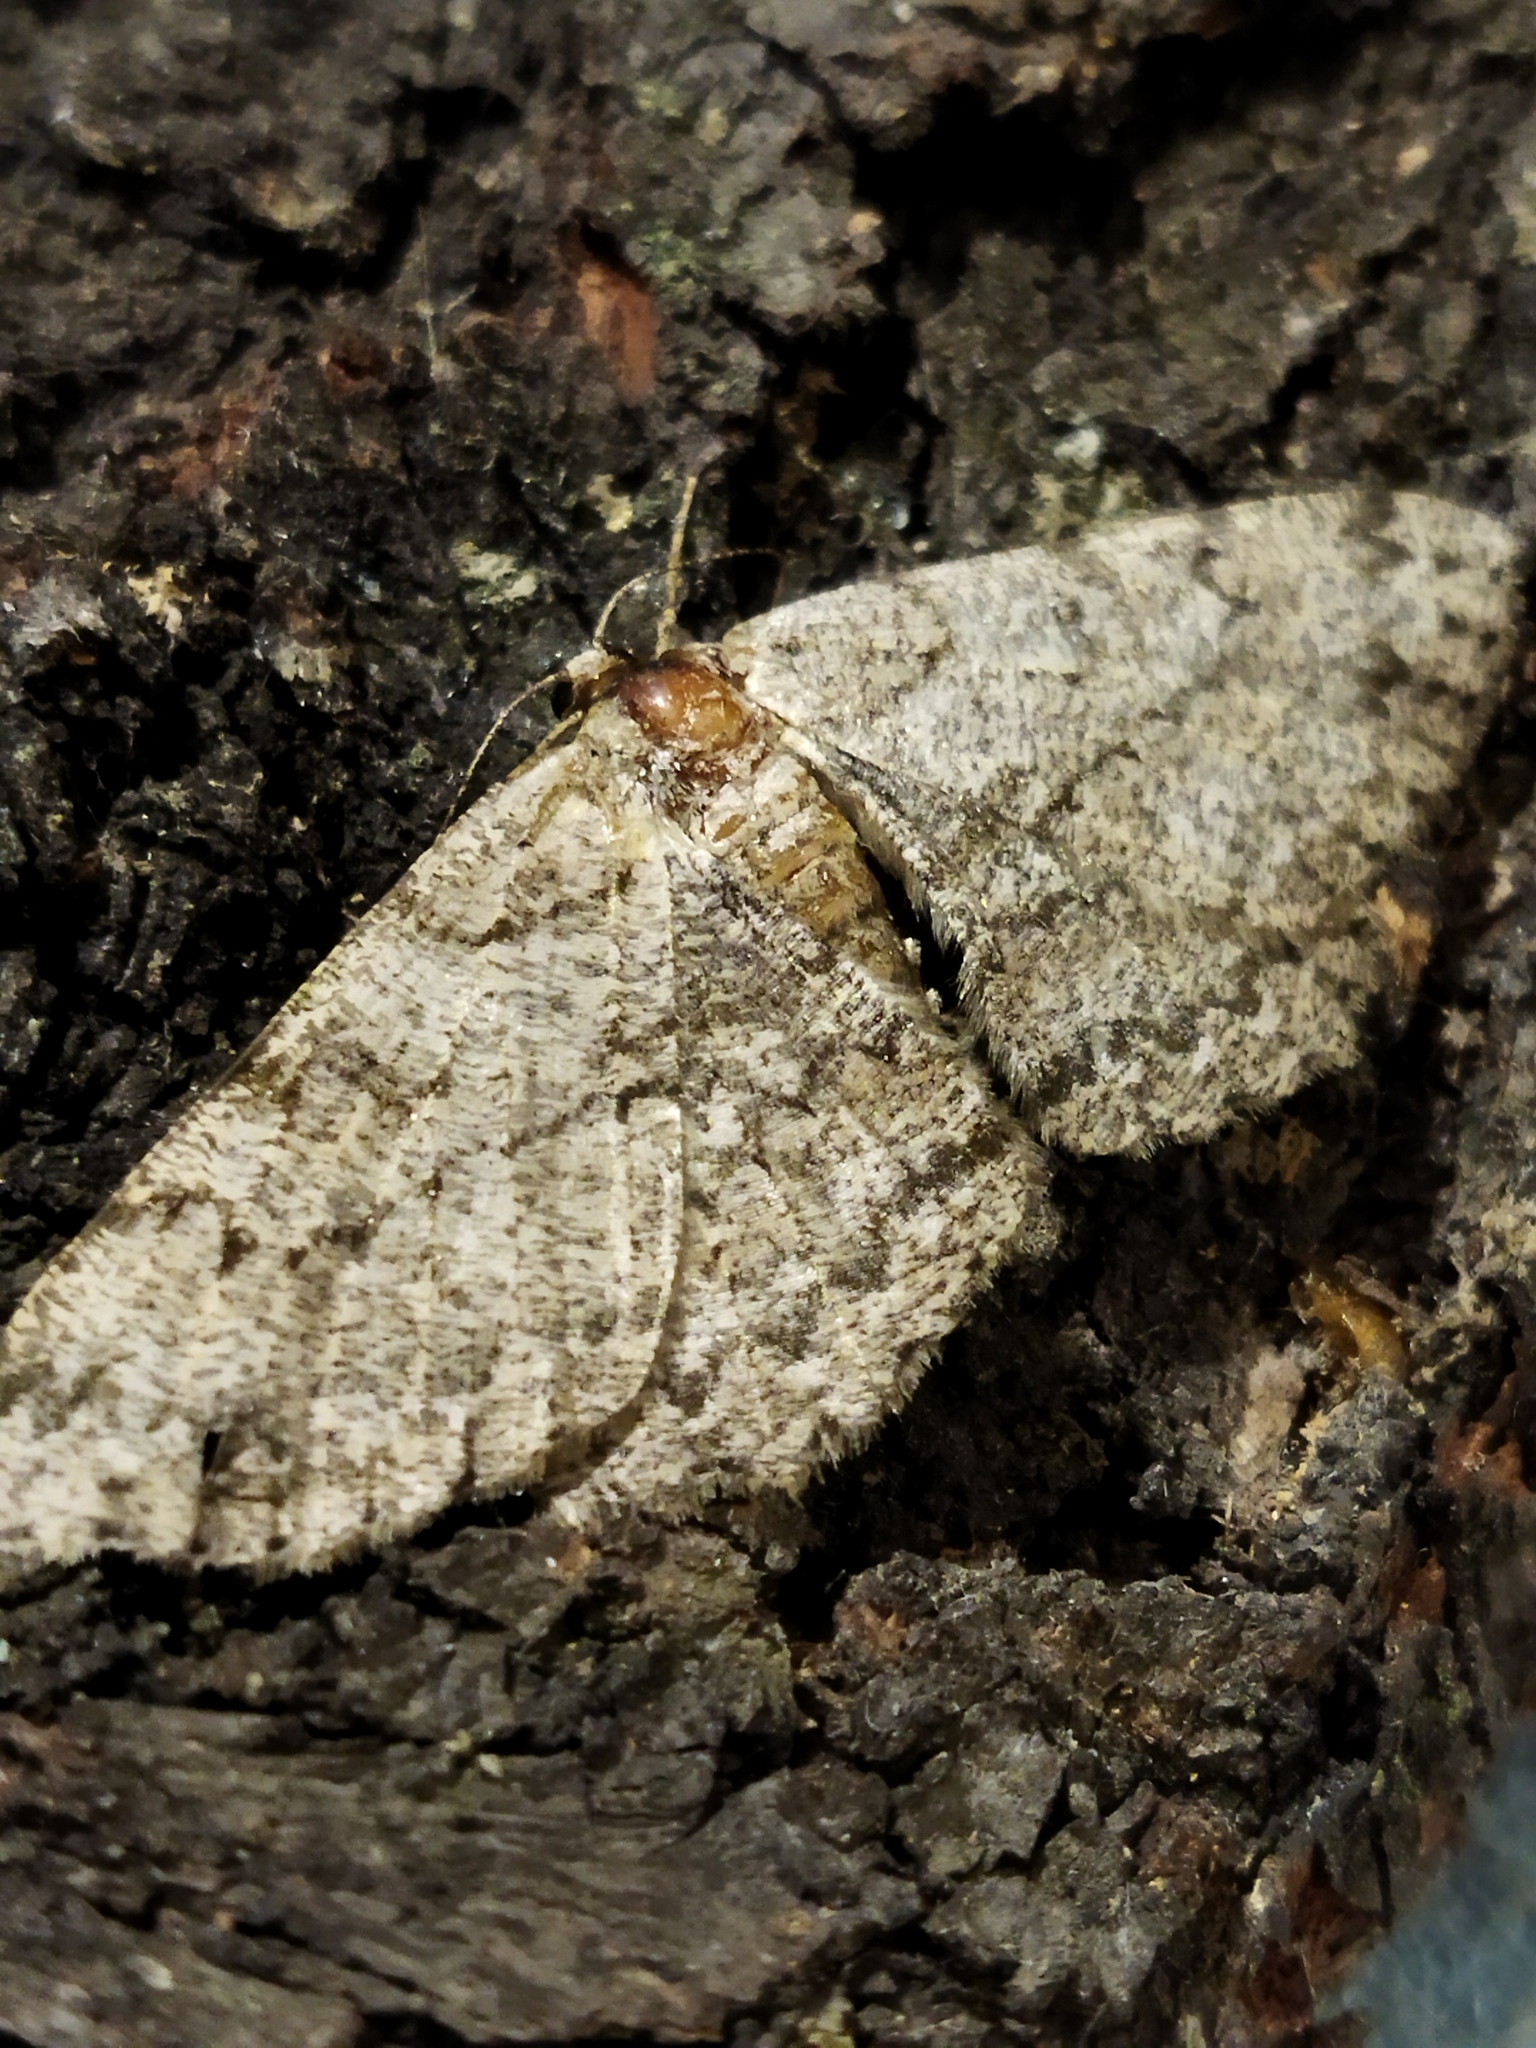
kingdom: Animalia
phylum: Arthropoda
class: Insecta
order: Lepidoptera
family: Geometridae
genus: Hypomecis
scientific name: Hypomecis punctinalis
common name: Pale oak beauty
